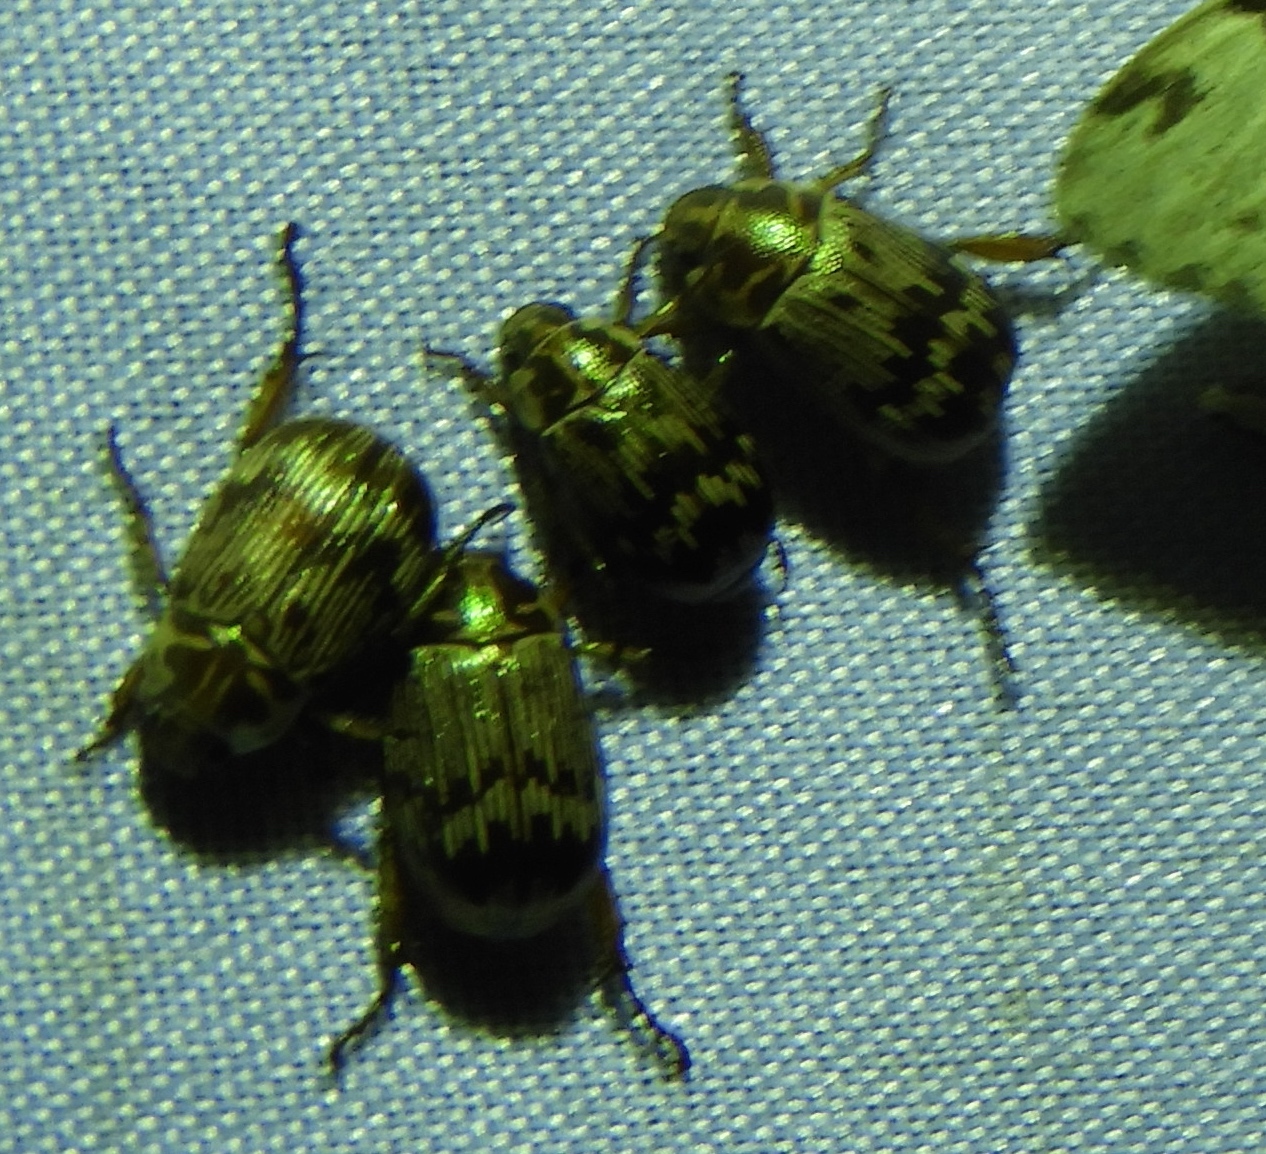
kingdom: Animalia
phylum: Arthropoda
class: Insecta
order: Coleoptera
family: Scarabaeidae
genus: Paranomala
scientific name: Paranomala histrionella
